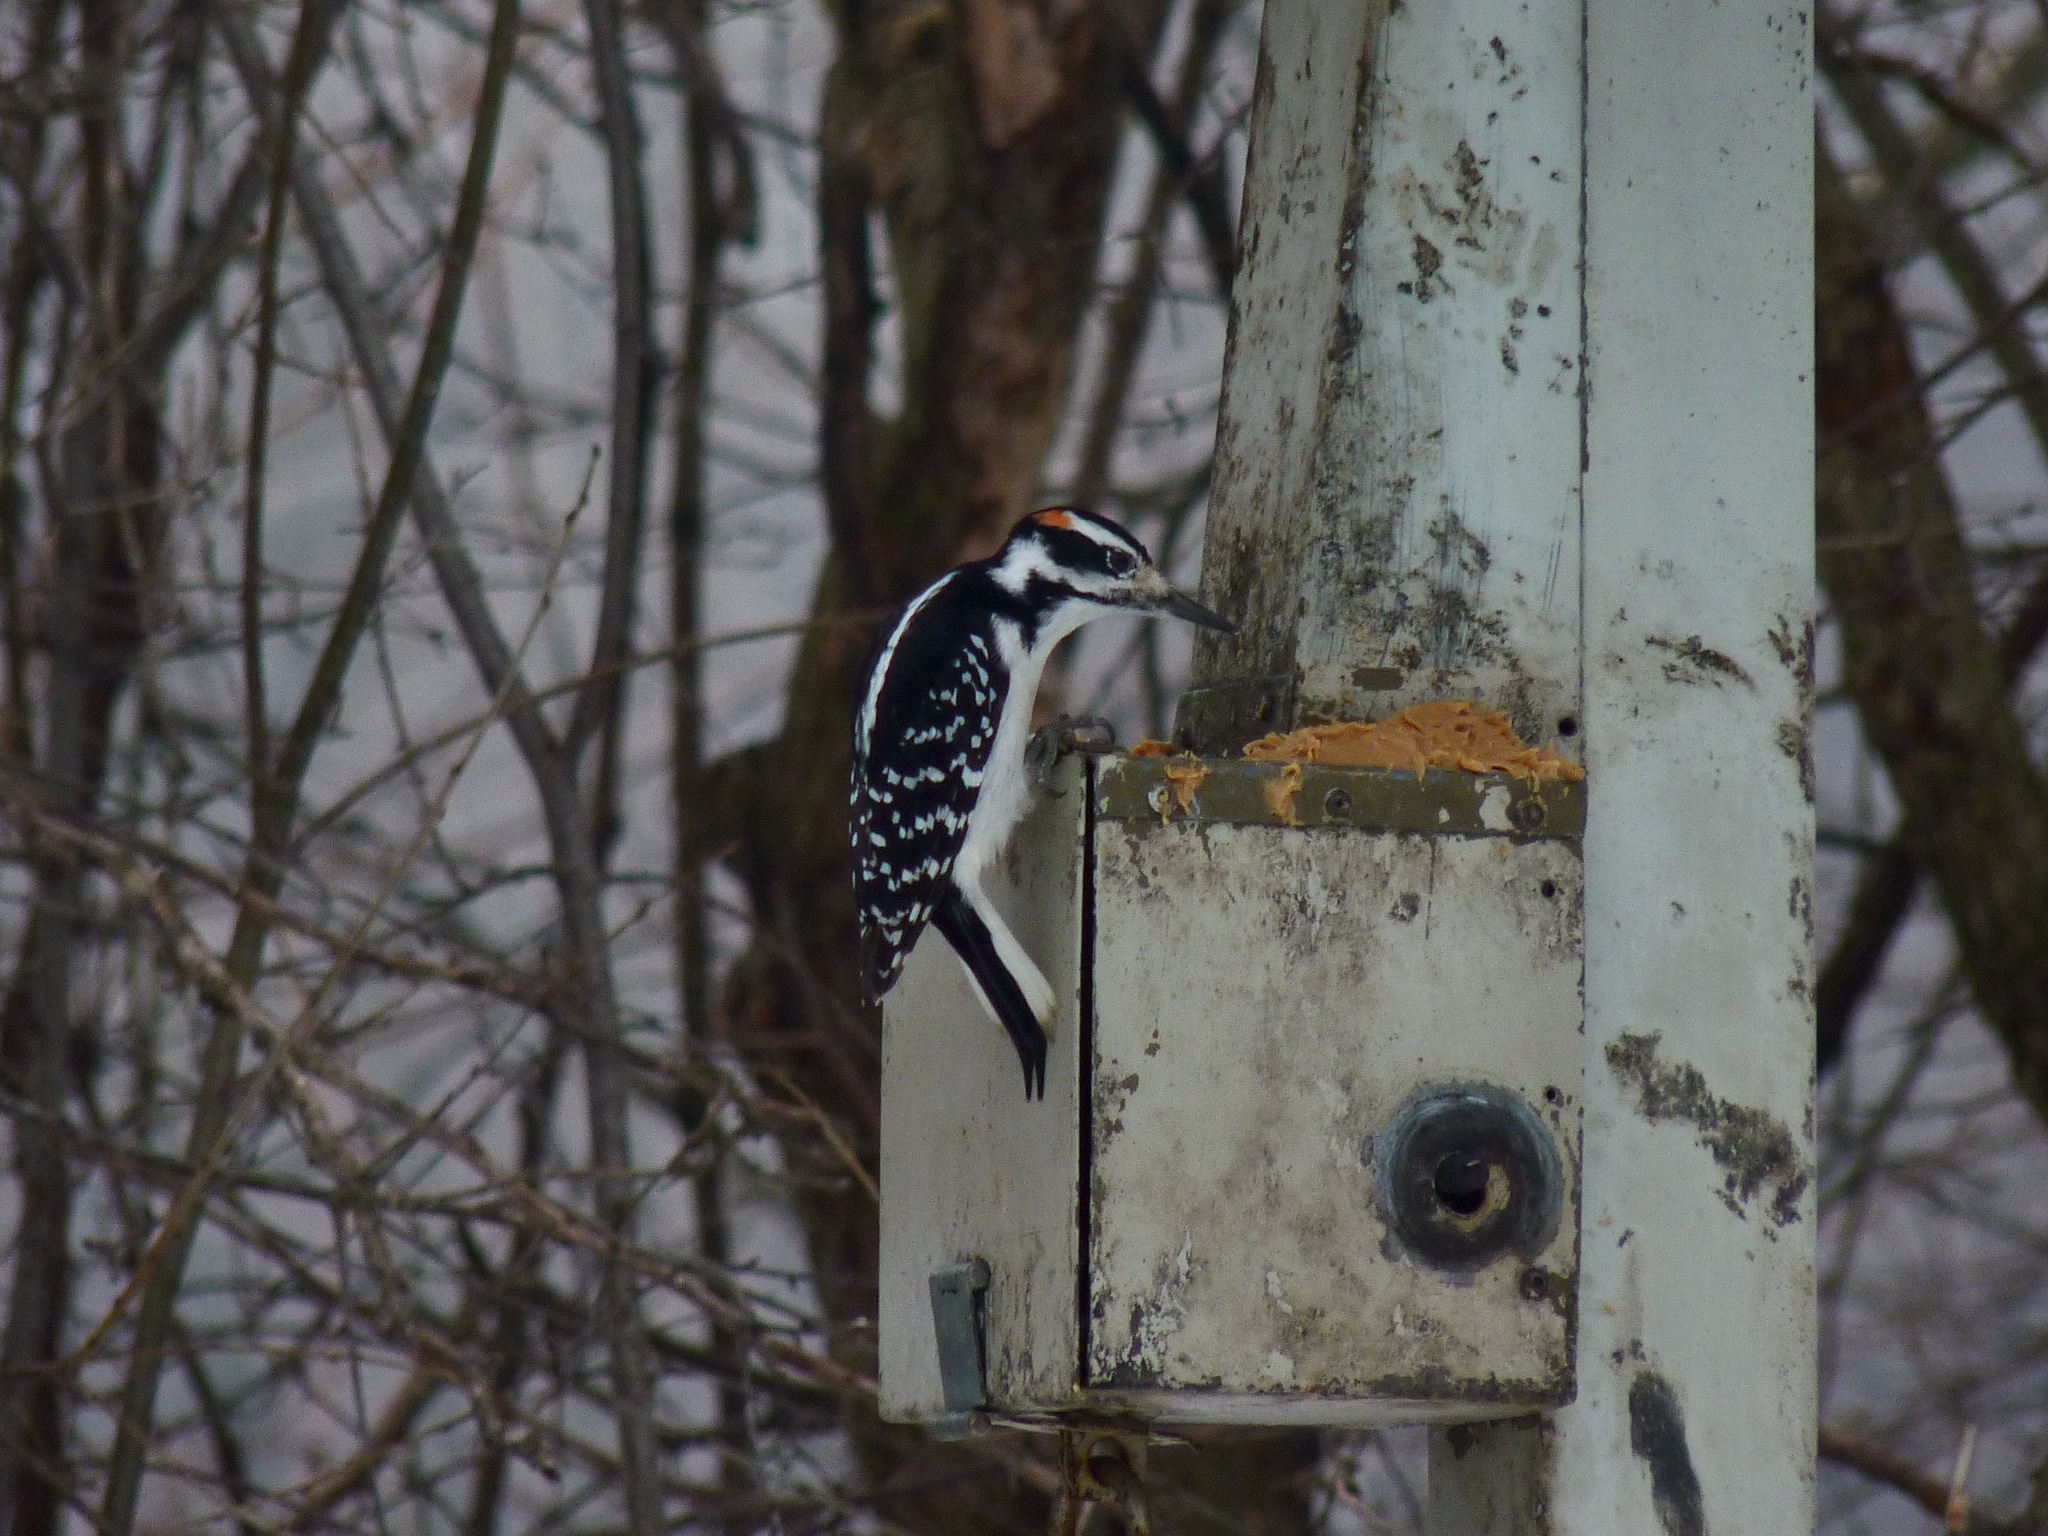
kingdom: Animalia
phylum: Chordata
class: Aves
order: Piciformes
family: Picidae
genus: Leuconotopicus
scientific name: Leuconotopicus villosus
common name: Hairy woodpecker
